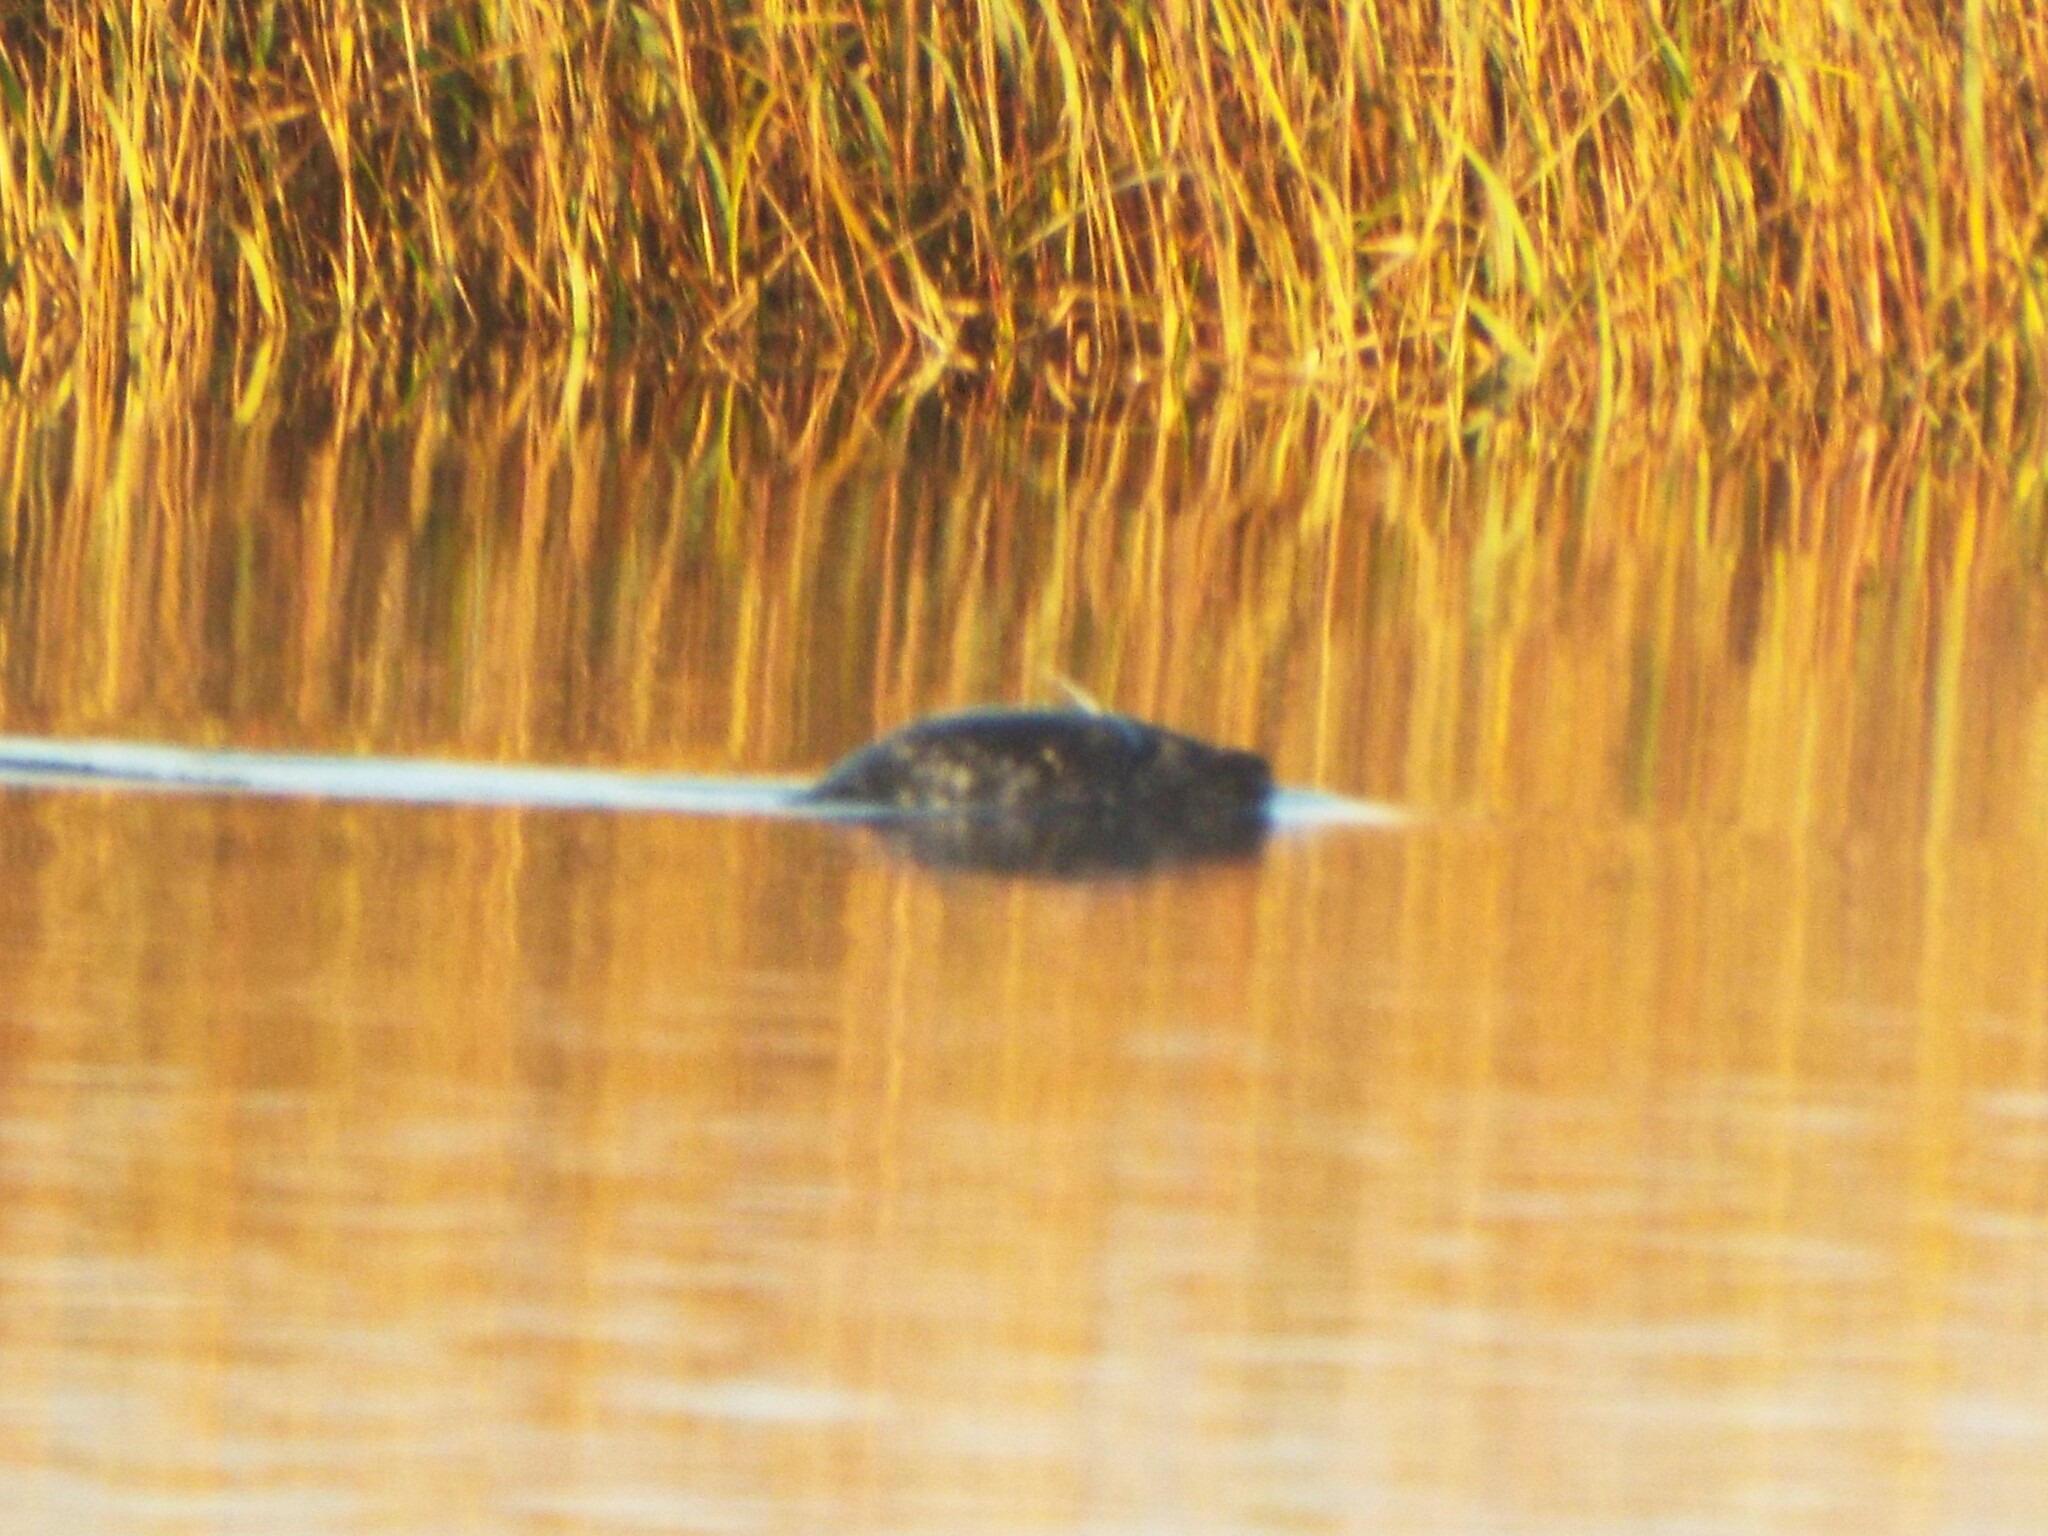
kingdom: Animalia
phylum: Chordata
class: Mammalia
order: Carnivora
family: Phocidae
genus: Phoca
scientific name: Phoca vitulina
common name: Harbor seal
